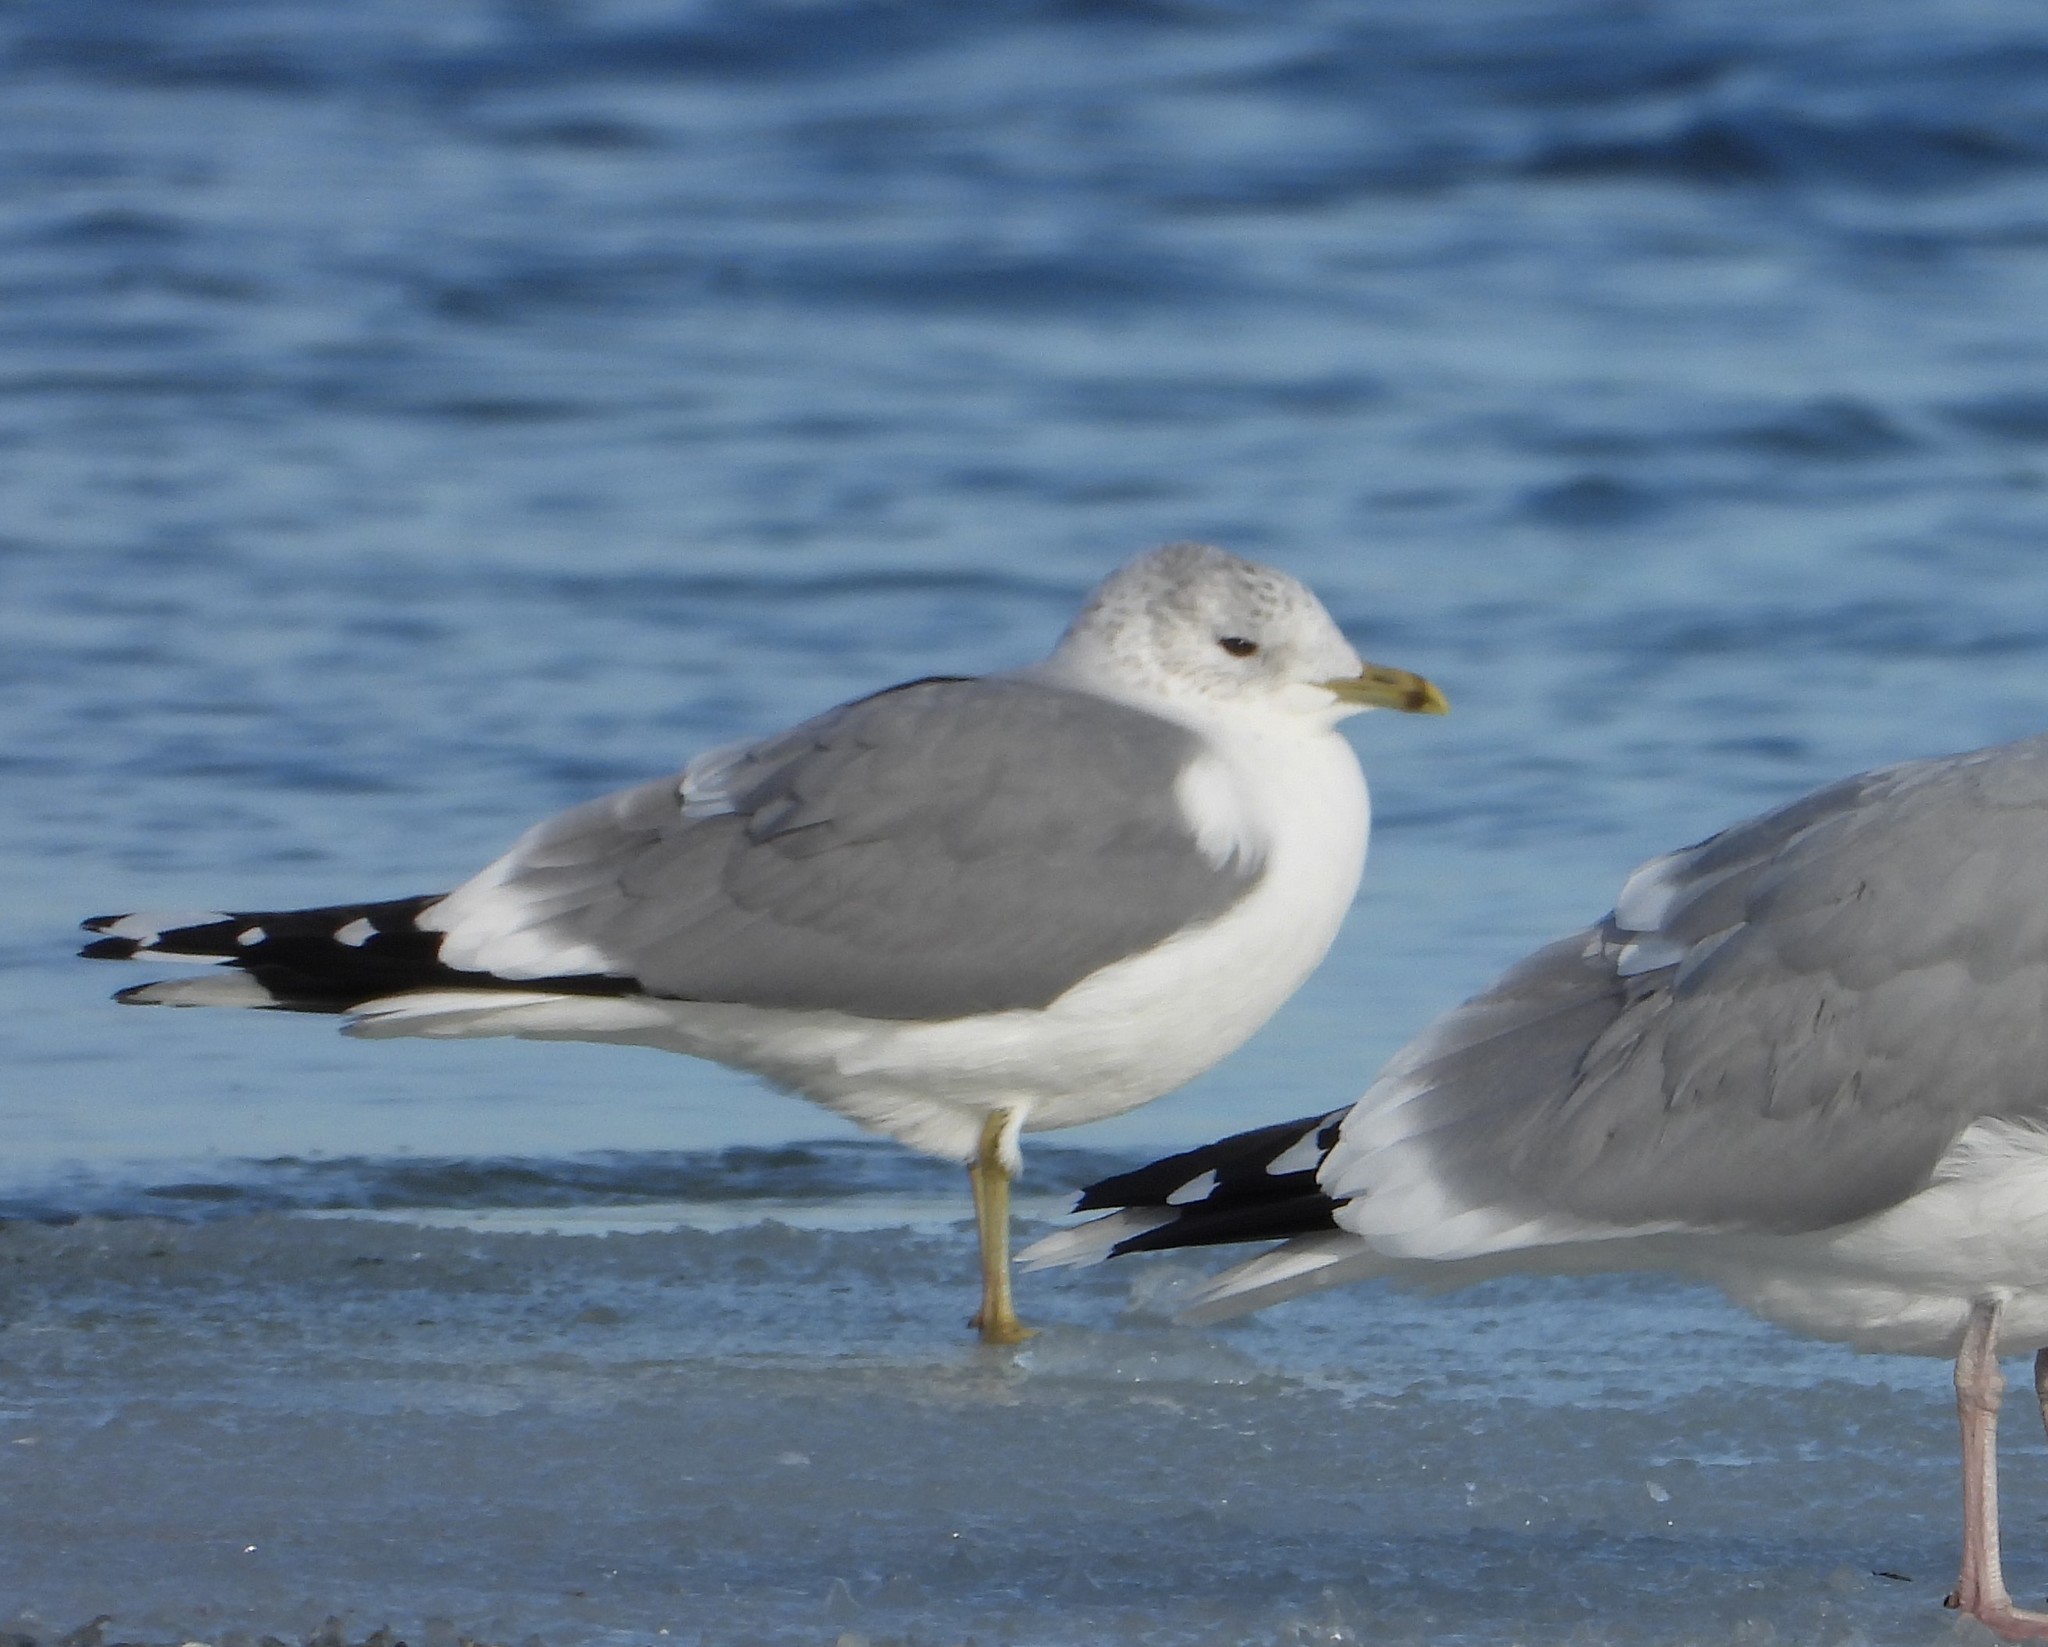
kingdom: Animalia
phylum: Chordata
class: Aves
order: Charadriiformes
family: Laridae
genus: Larus
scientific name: Larus canus
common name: Mew gull
